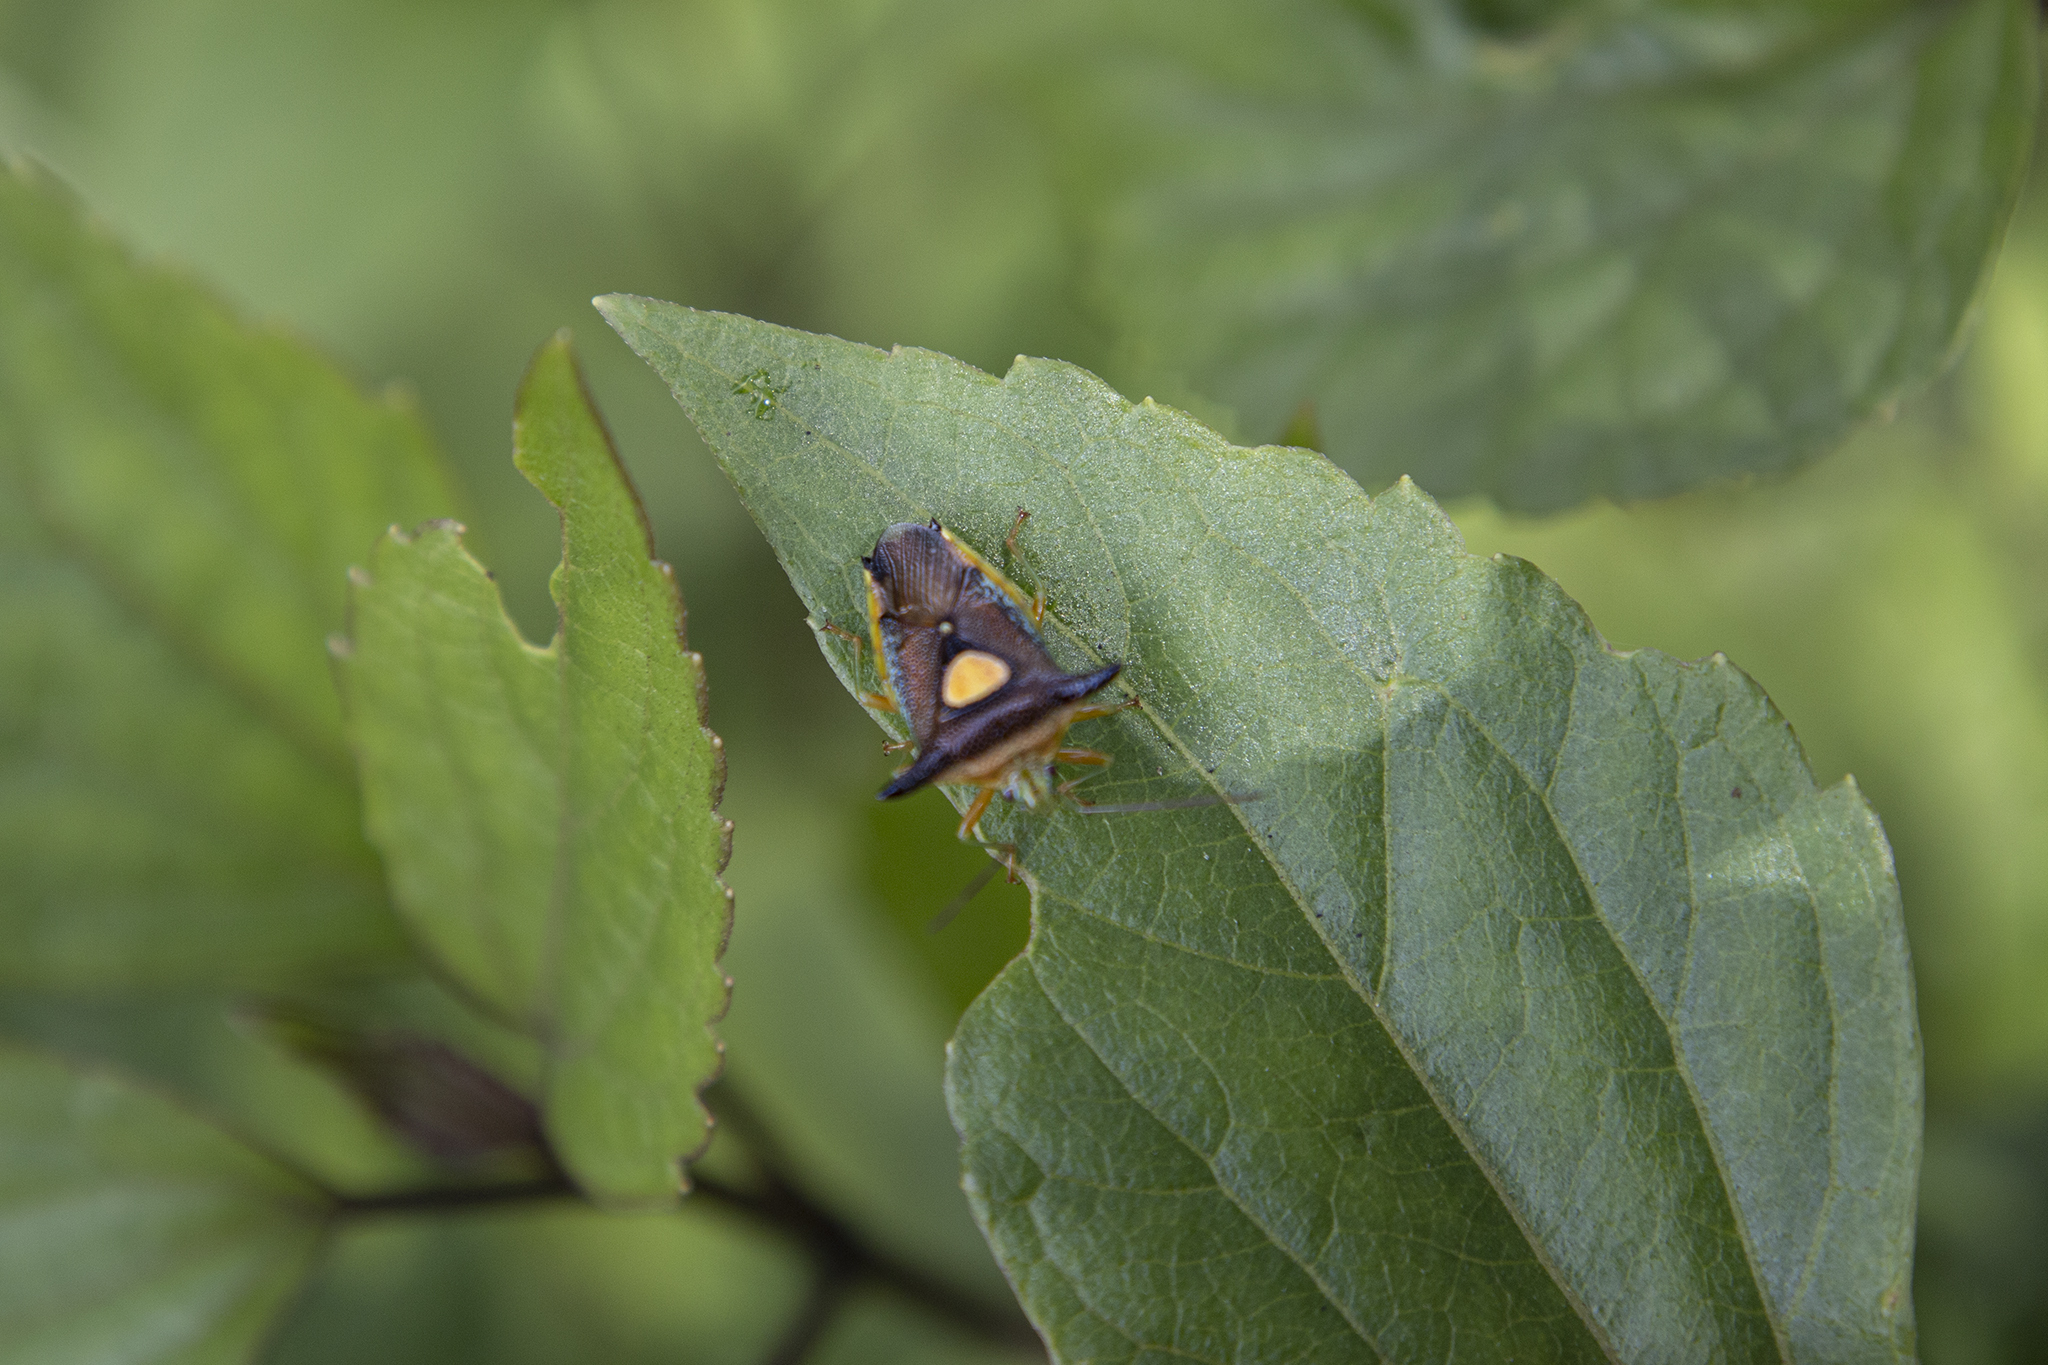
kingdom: Animalia
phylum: Arthropoda
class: Insecta
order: Hemiptera
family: Acanthosomatidae
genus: Sastragala
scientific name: Sastragala sigillata
